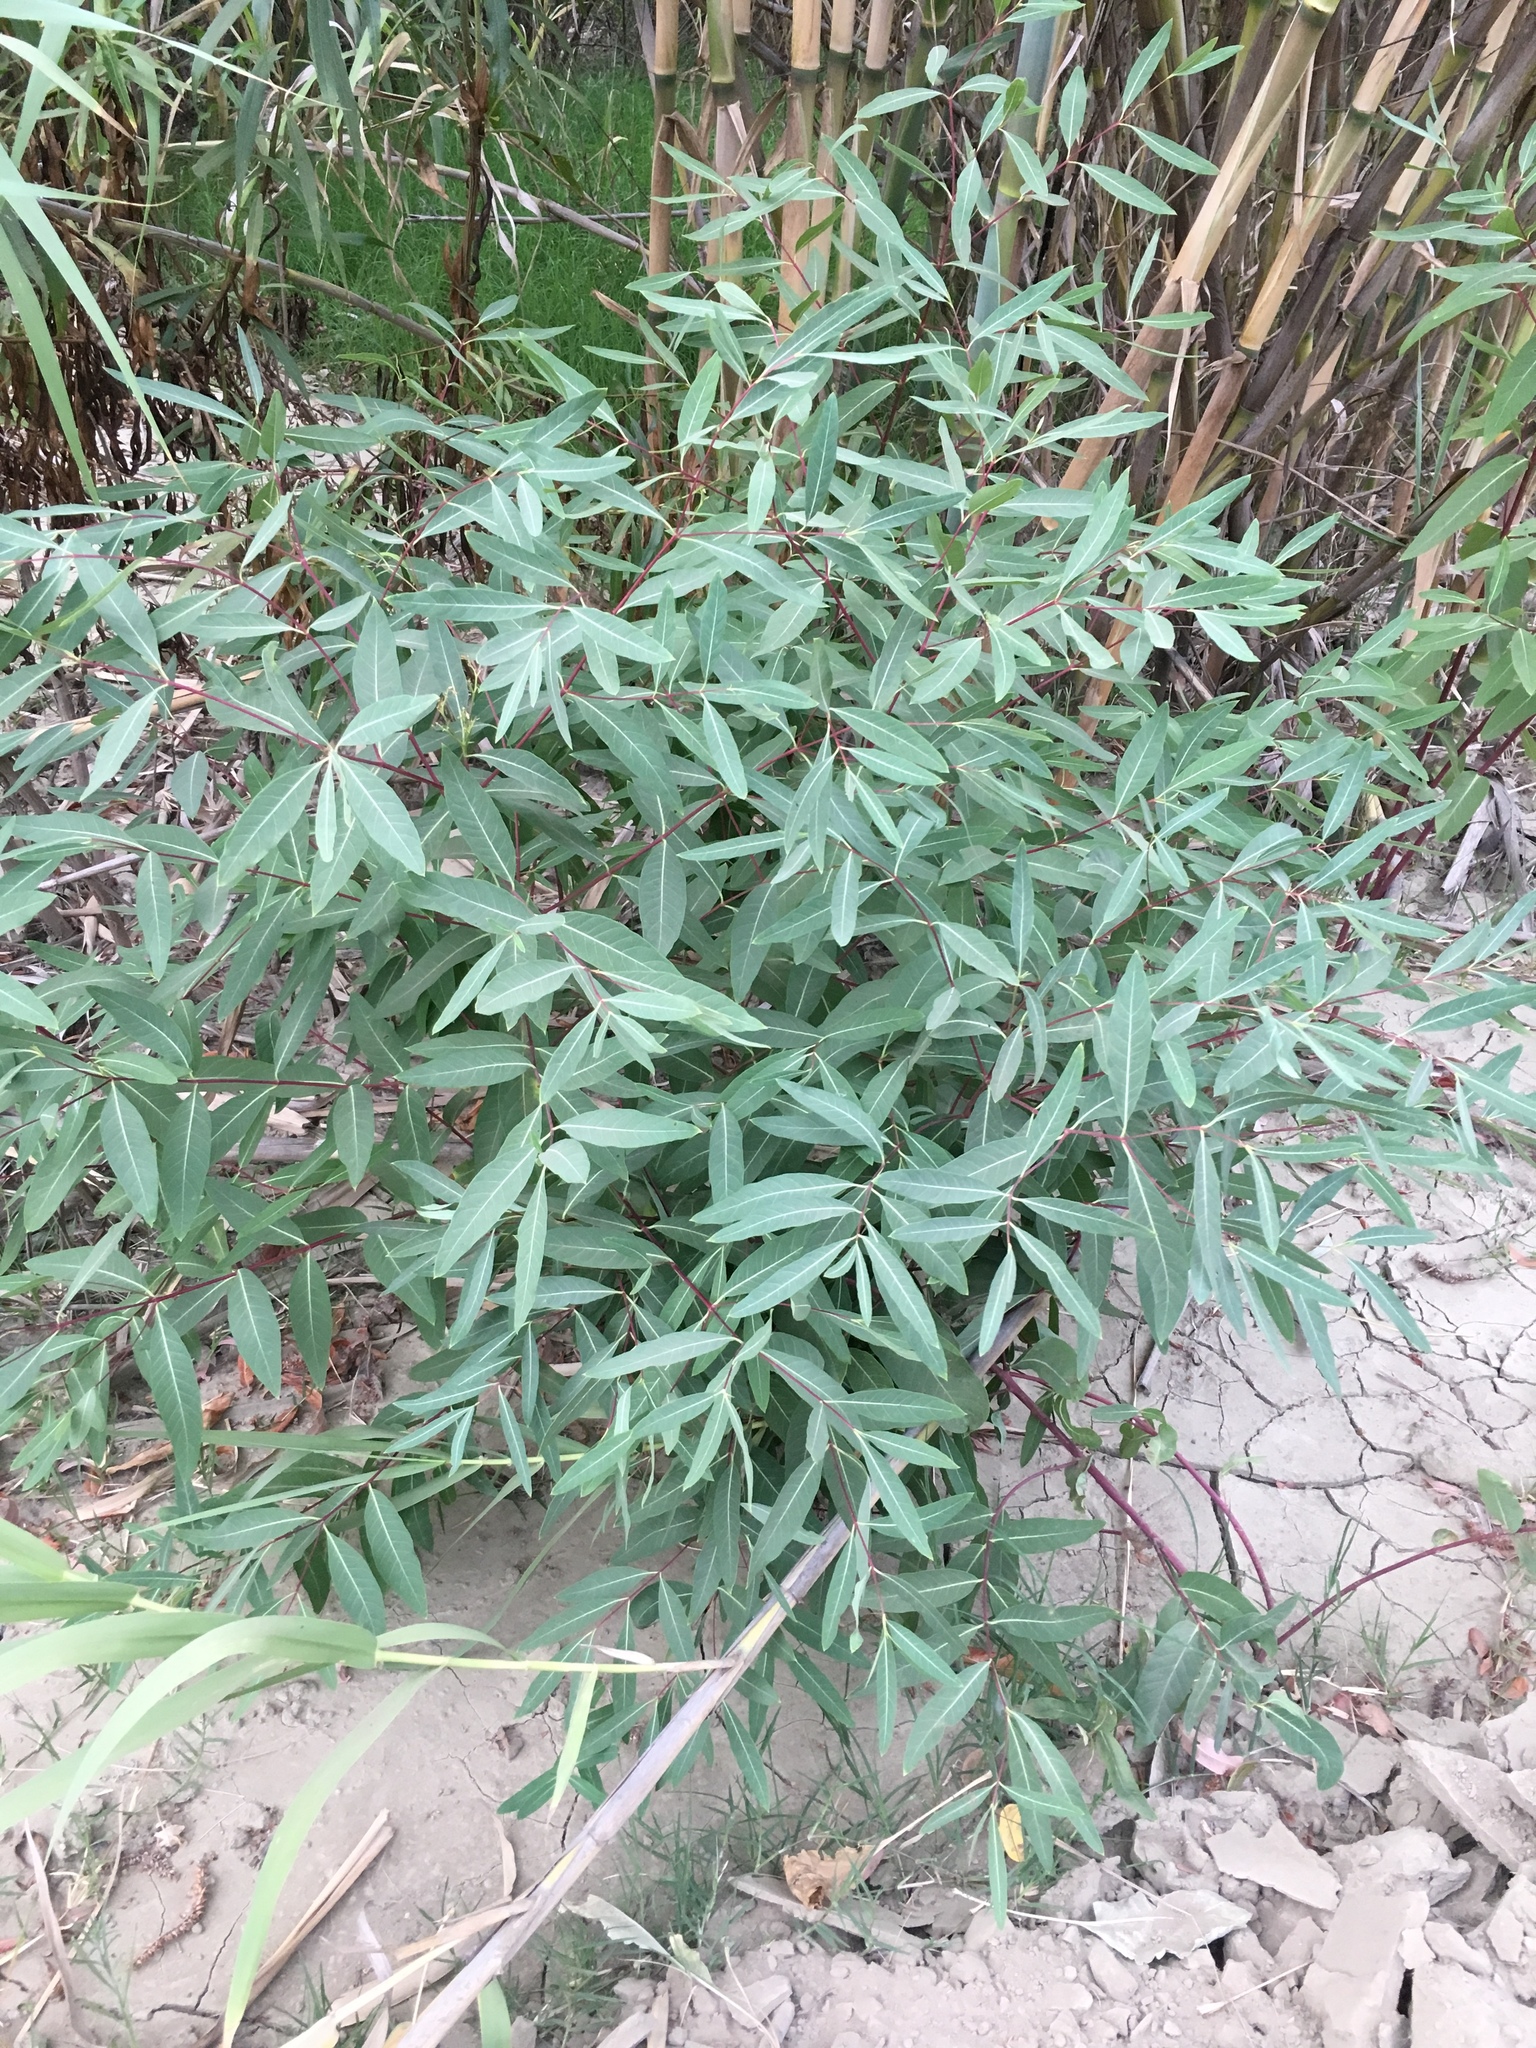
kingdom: Plantae
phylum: Tracheophyta
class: Magnoliopsida
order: Gentianales
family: Apocynaceae
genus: Apocynum
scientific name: Apocynum cannabinum
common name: Hemp dogbane
